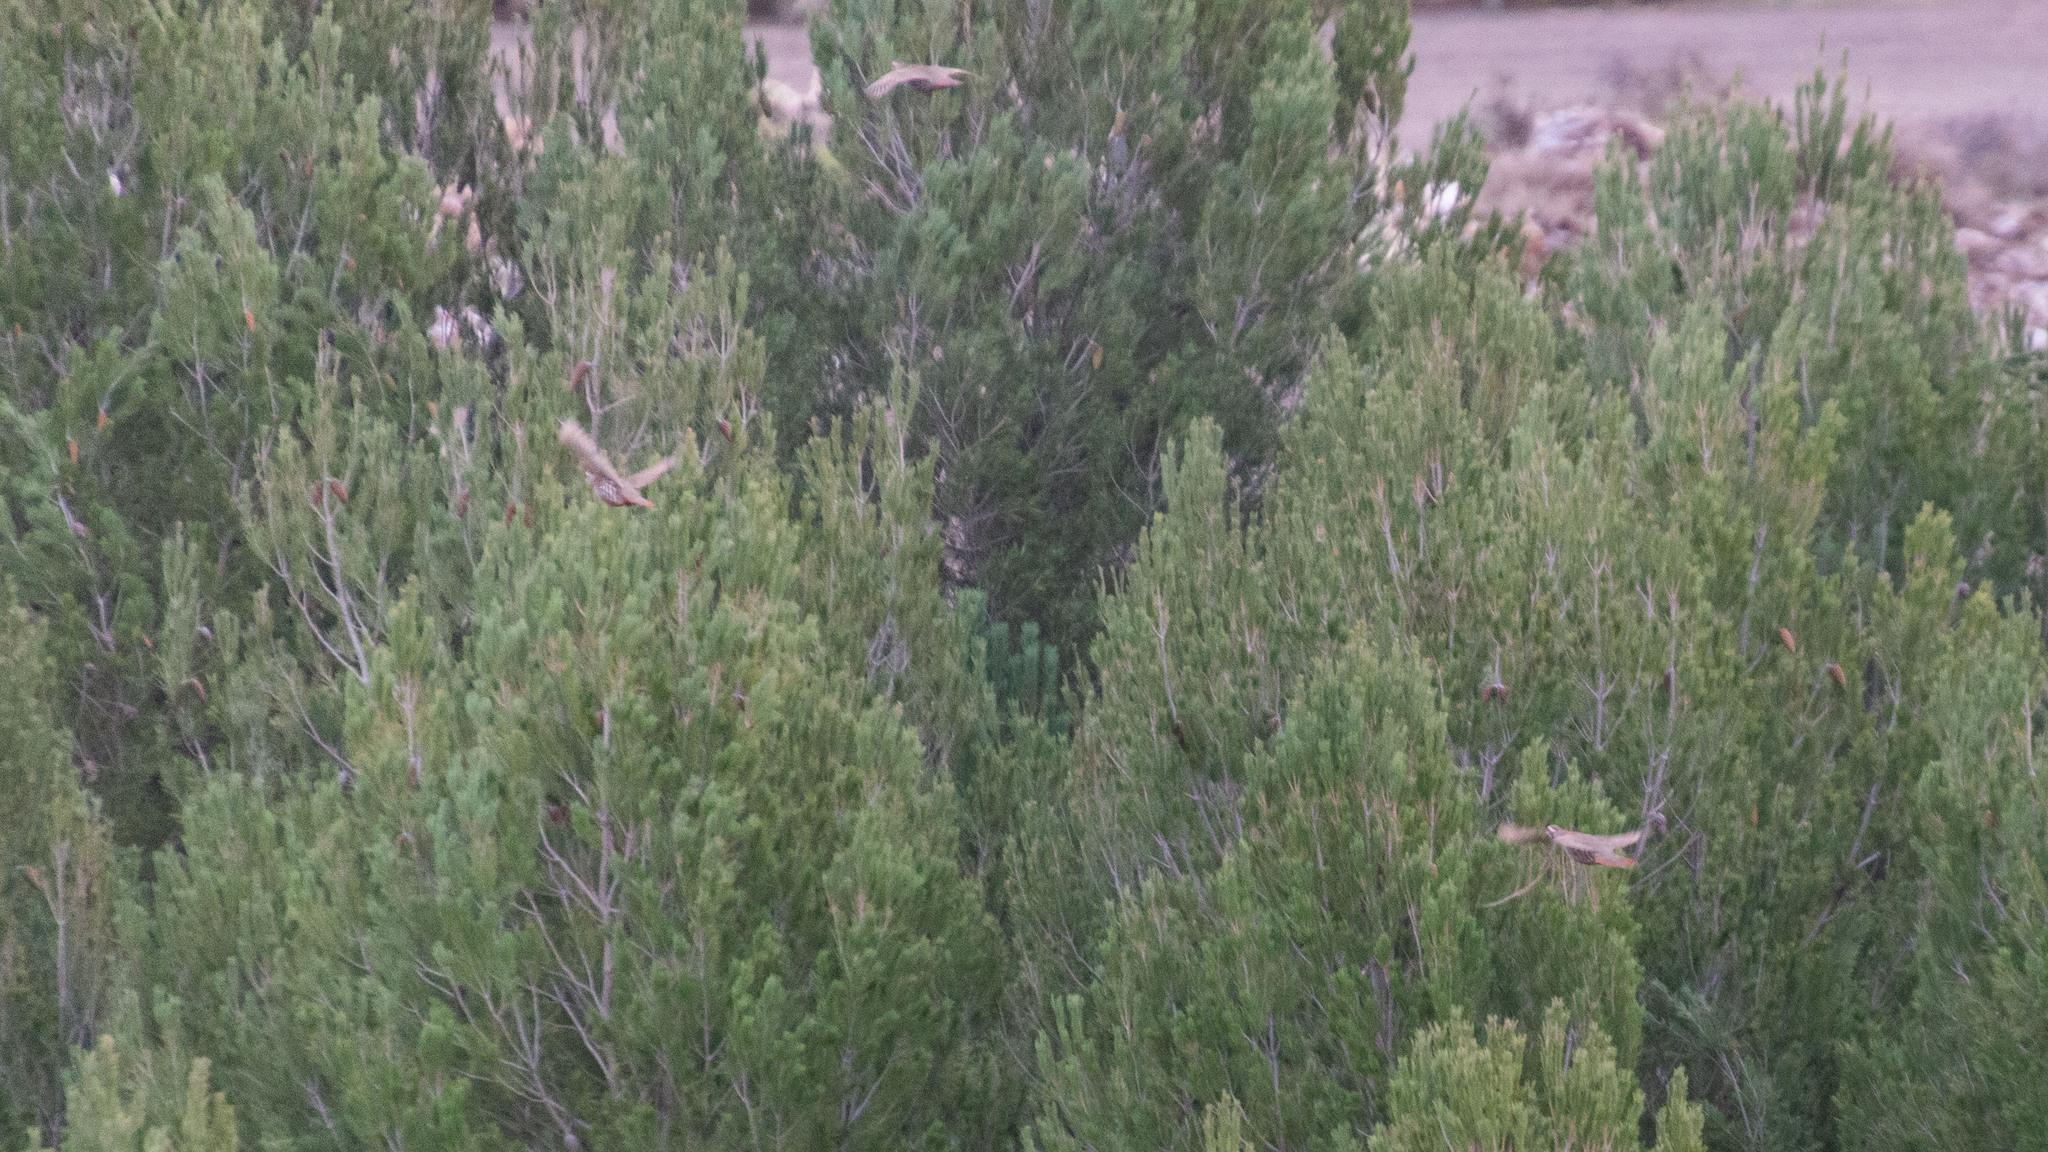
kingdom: Animalia
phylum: Chordata
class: Aves
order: Galliformes
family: Phasianidae
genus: Alectoris
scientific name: Alectoris rufa
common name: Red-legged partridge
